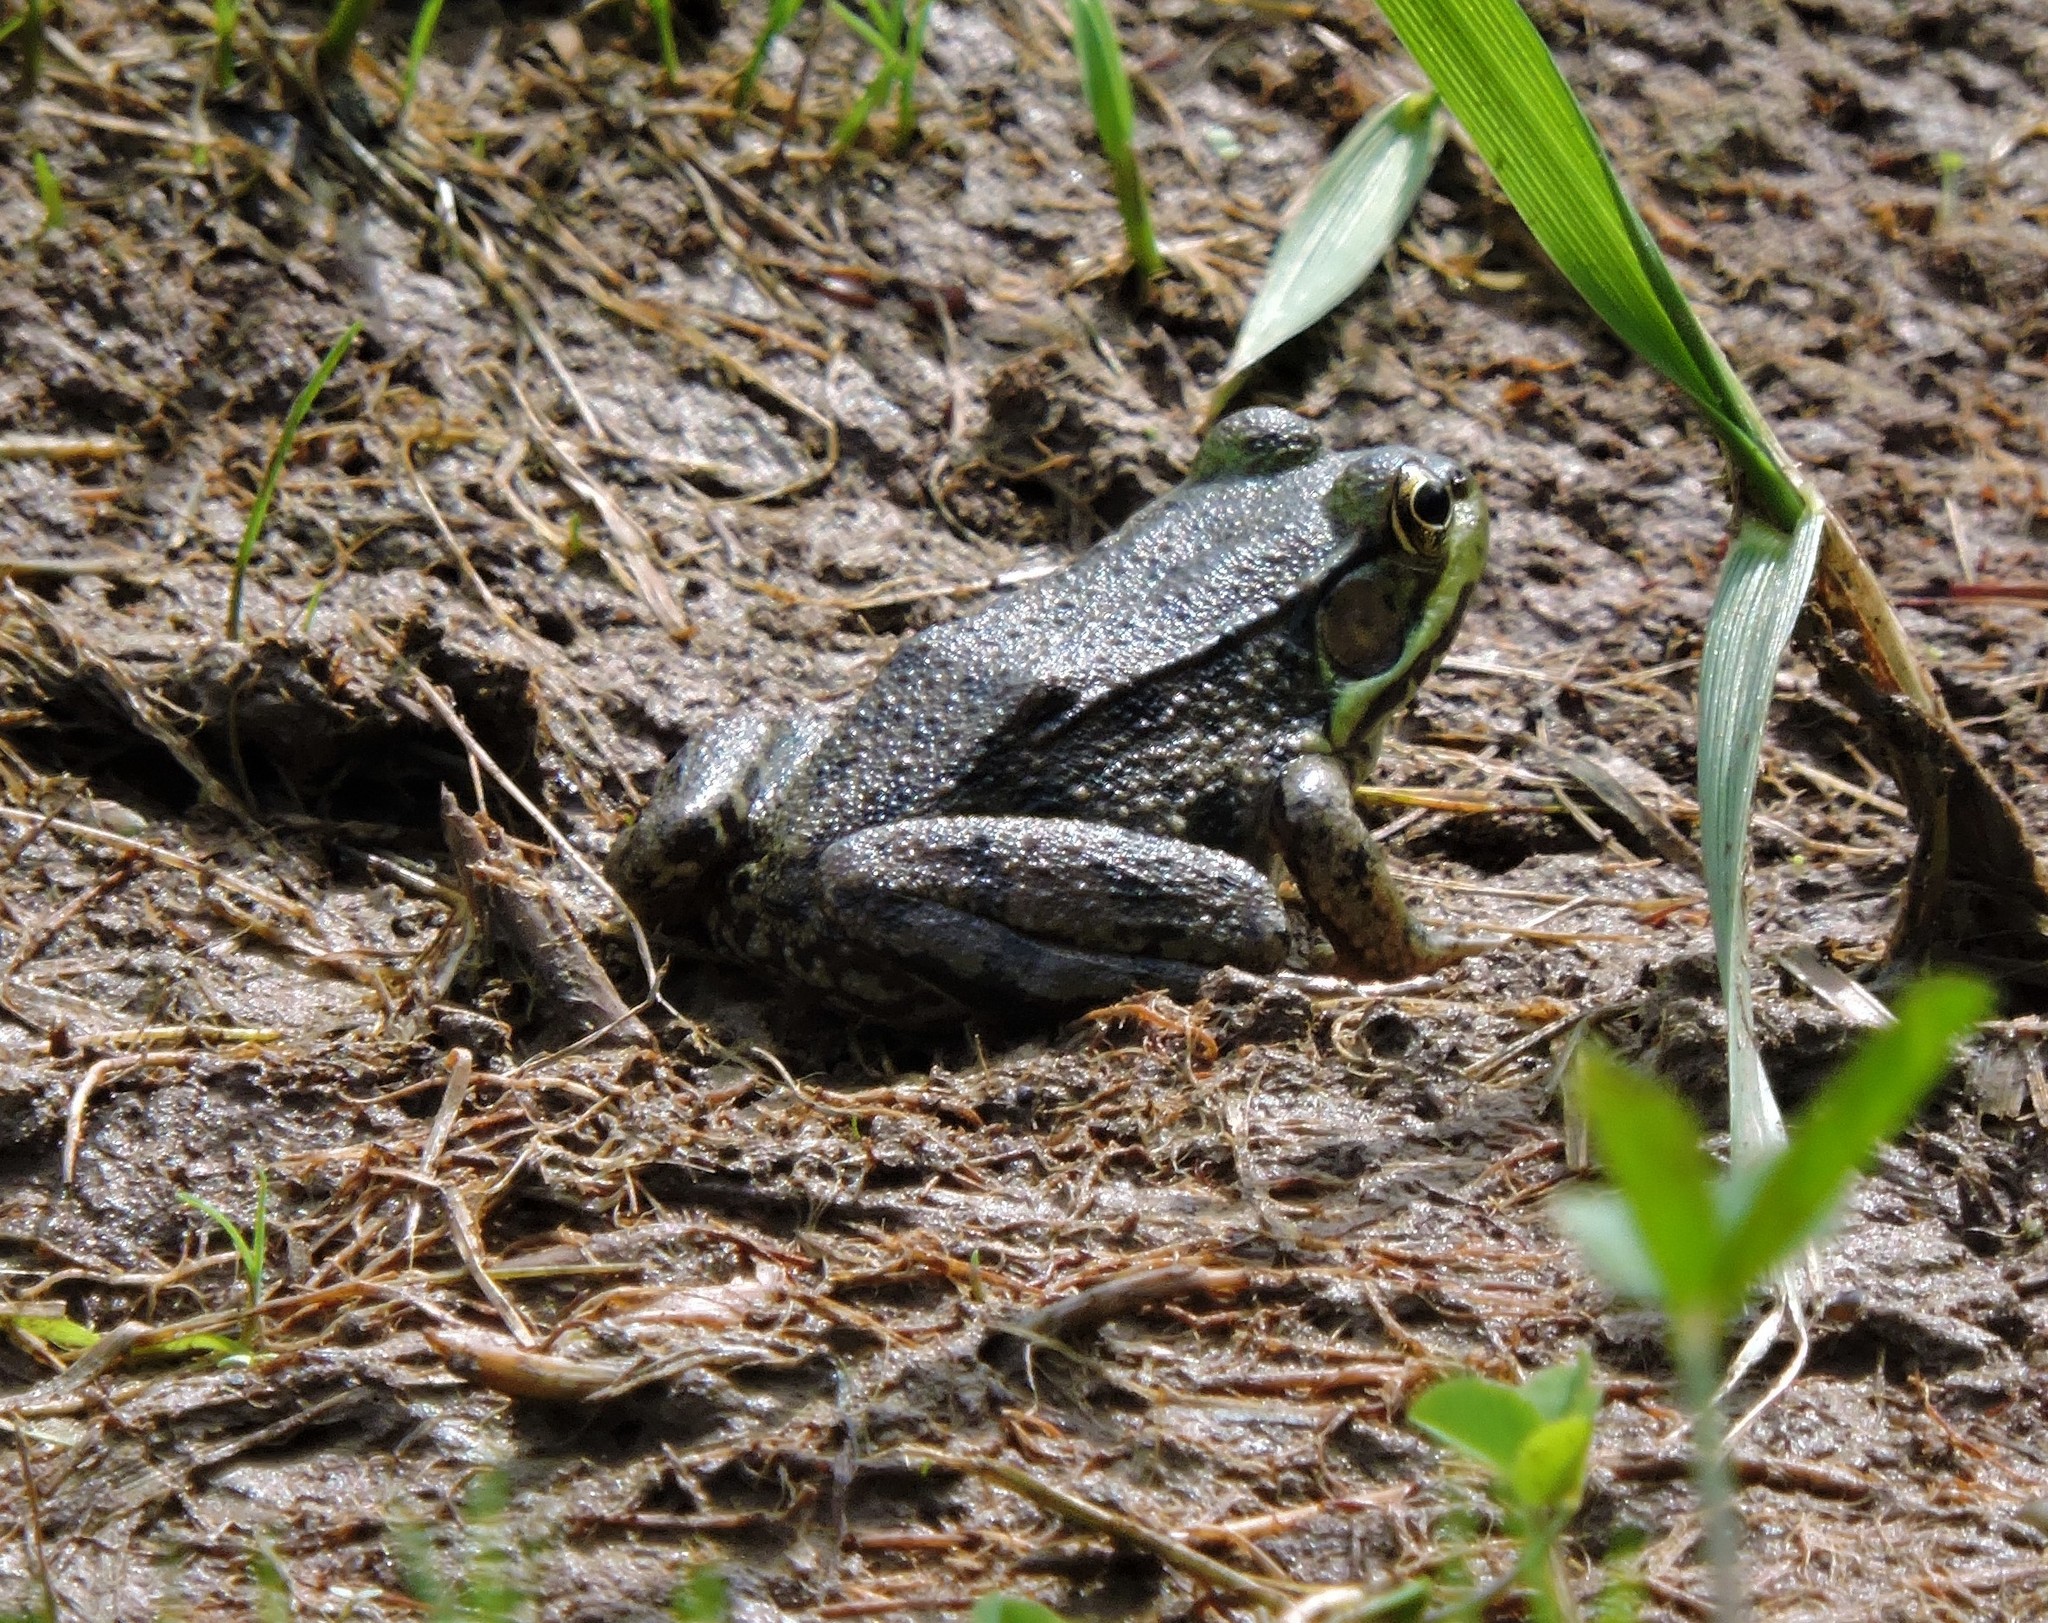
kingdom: Animalia
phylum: Chordata
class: Amphibia
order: Anura
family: Ranidae
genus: Lithobates
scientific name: Lithobates clamitans
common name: Green frog
